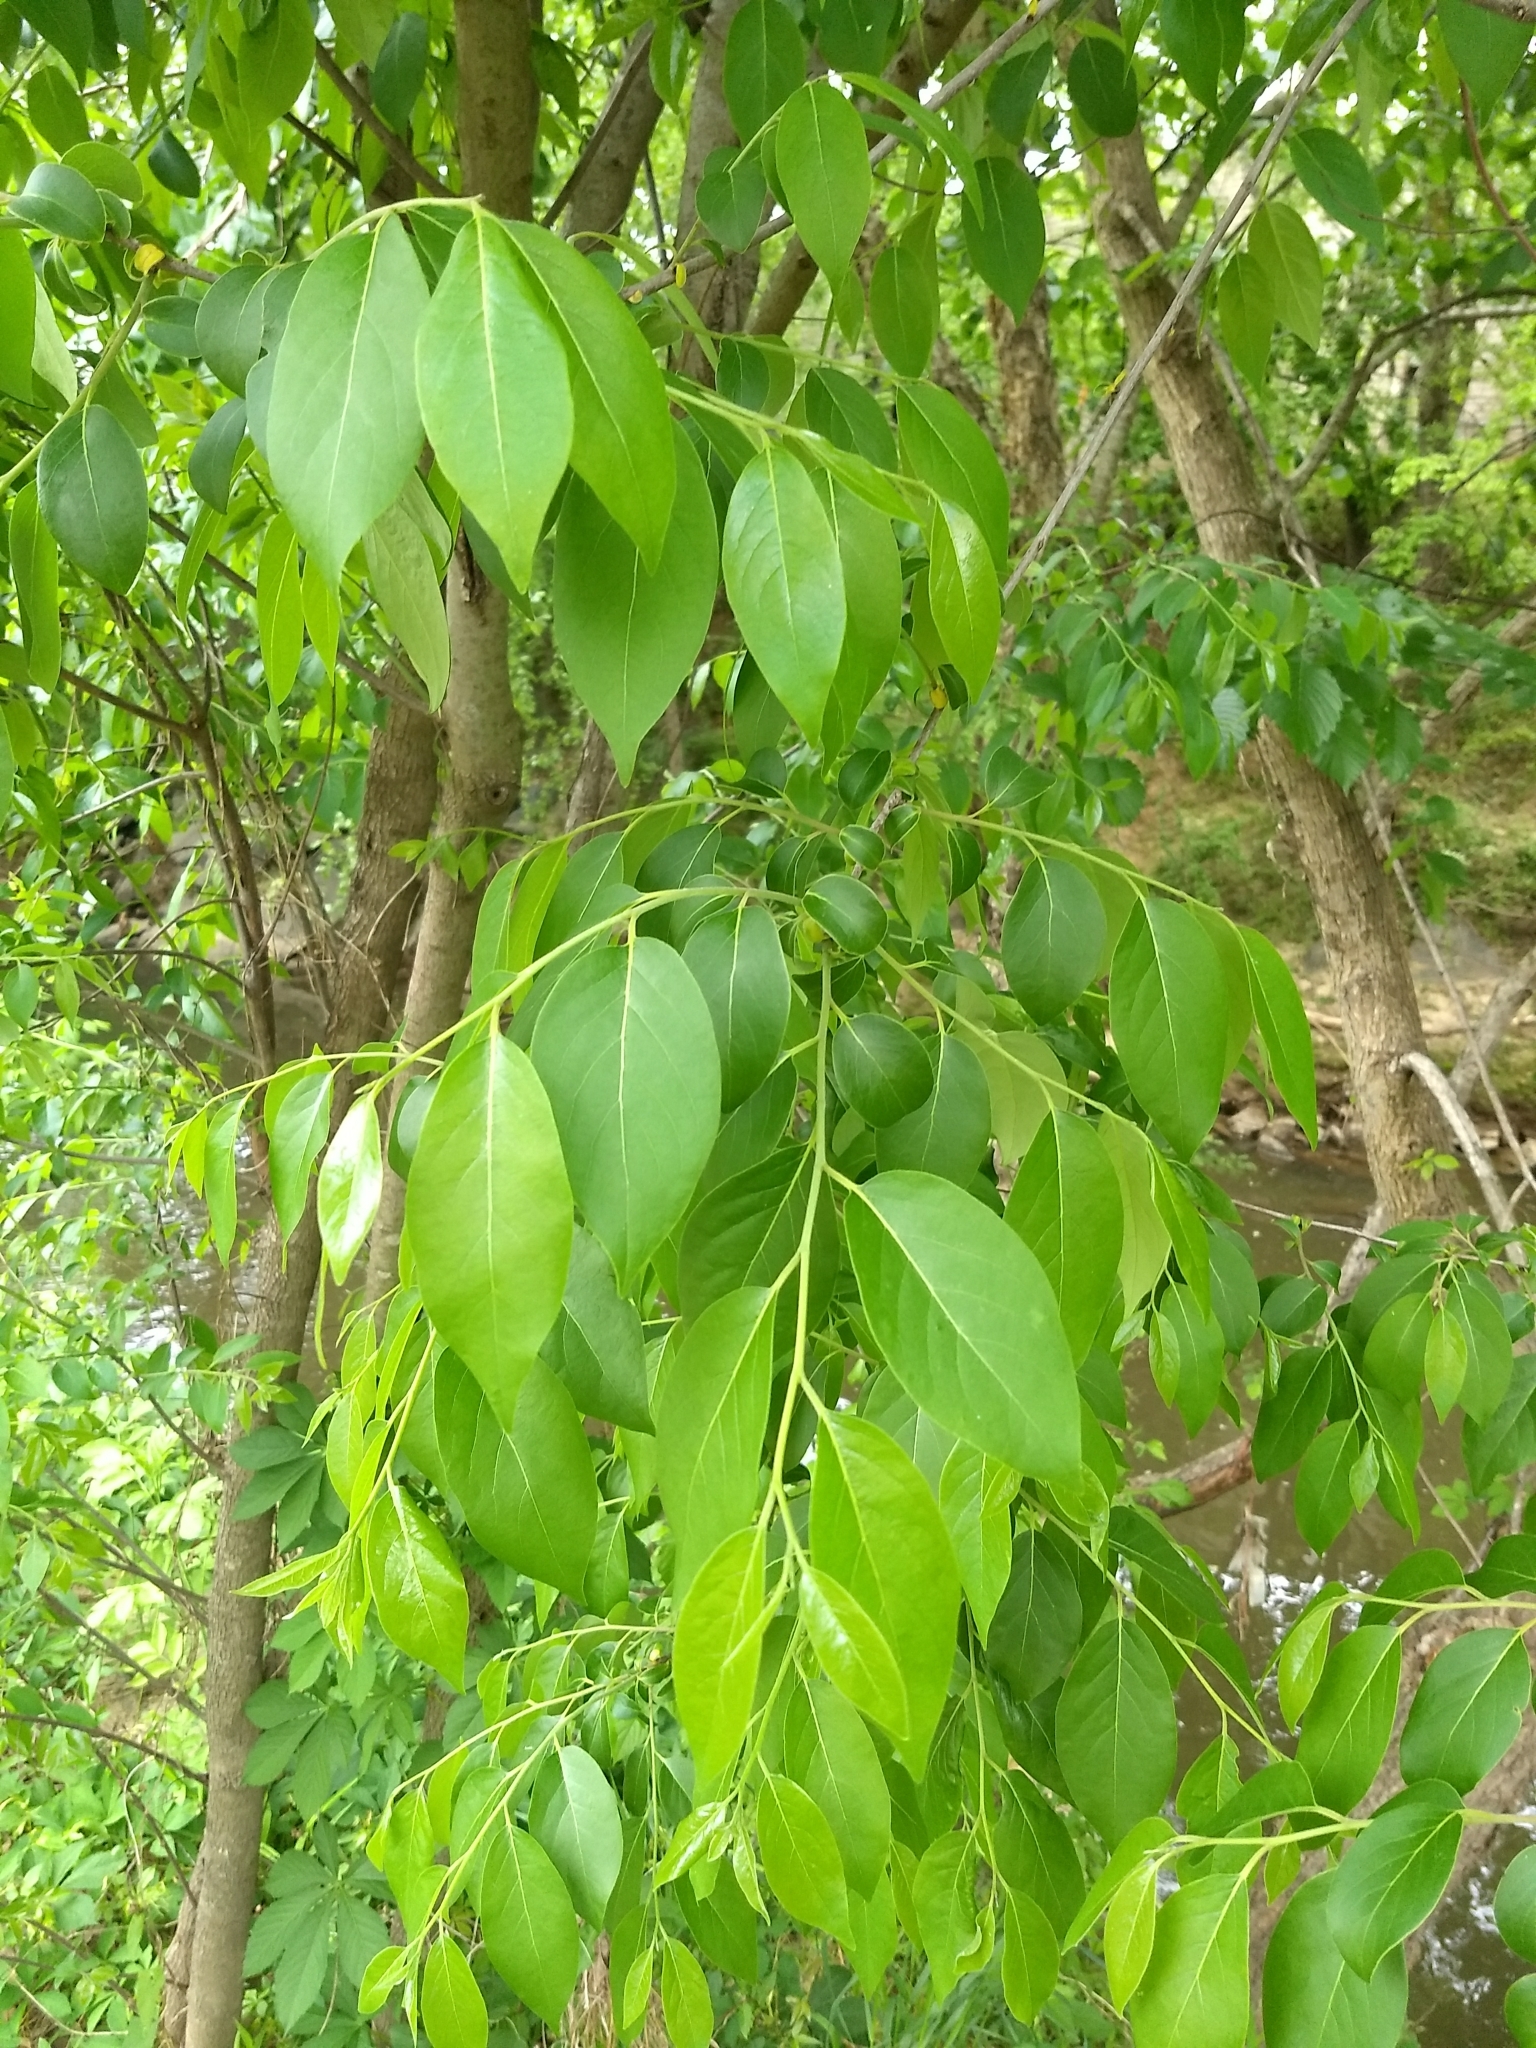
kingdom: Plantae
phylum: Tracheophyta
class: Magnoliopsida
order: Ericales
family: Ebenaceae
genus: Diospyros
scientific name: Diospyros virginiana
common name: Persimmon
